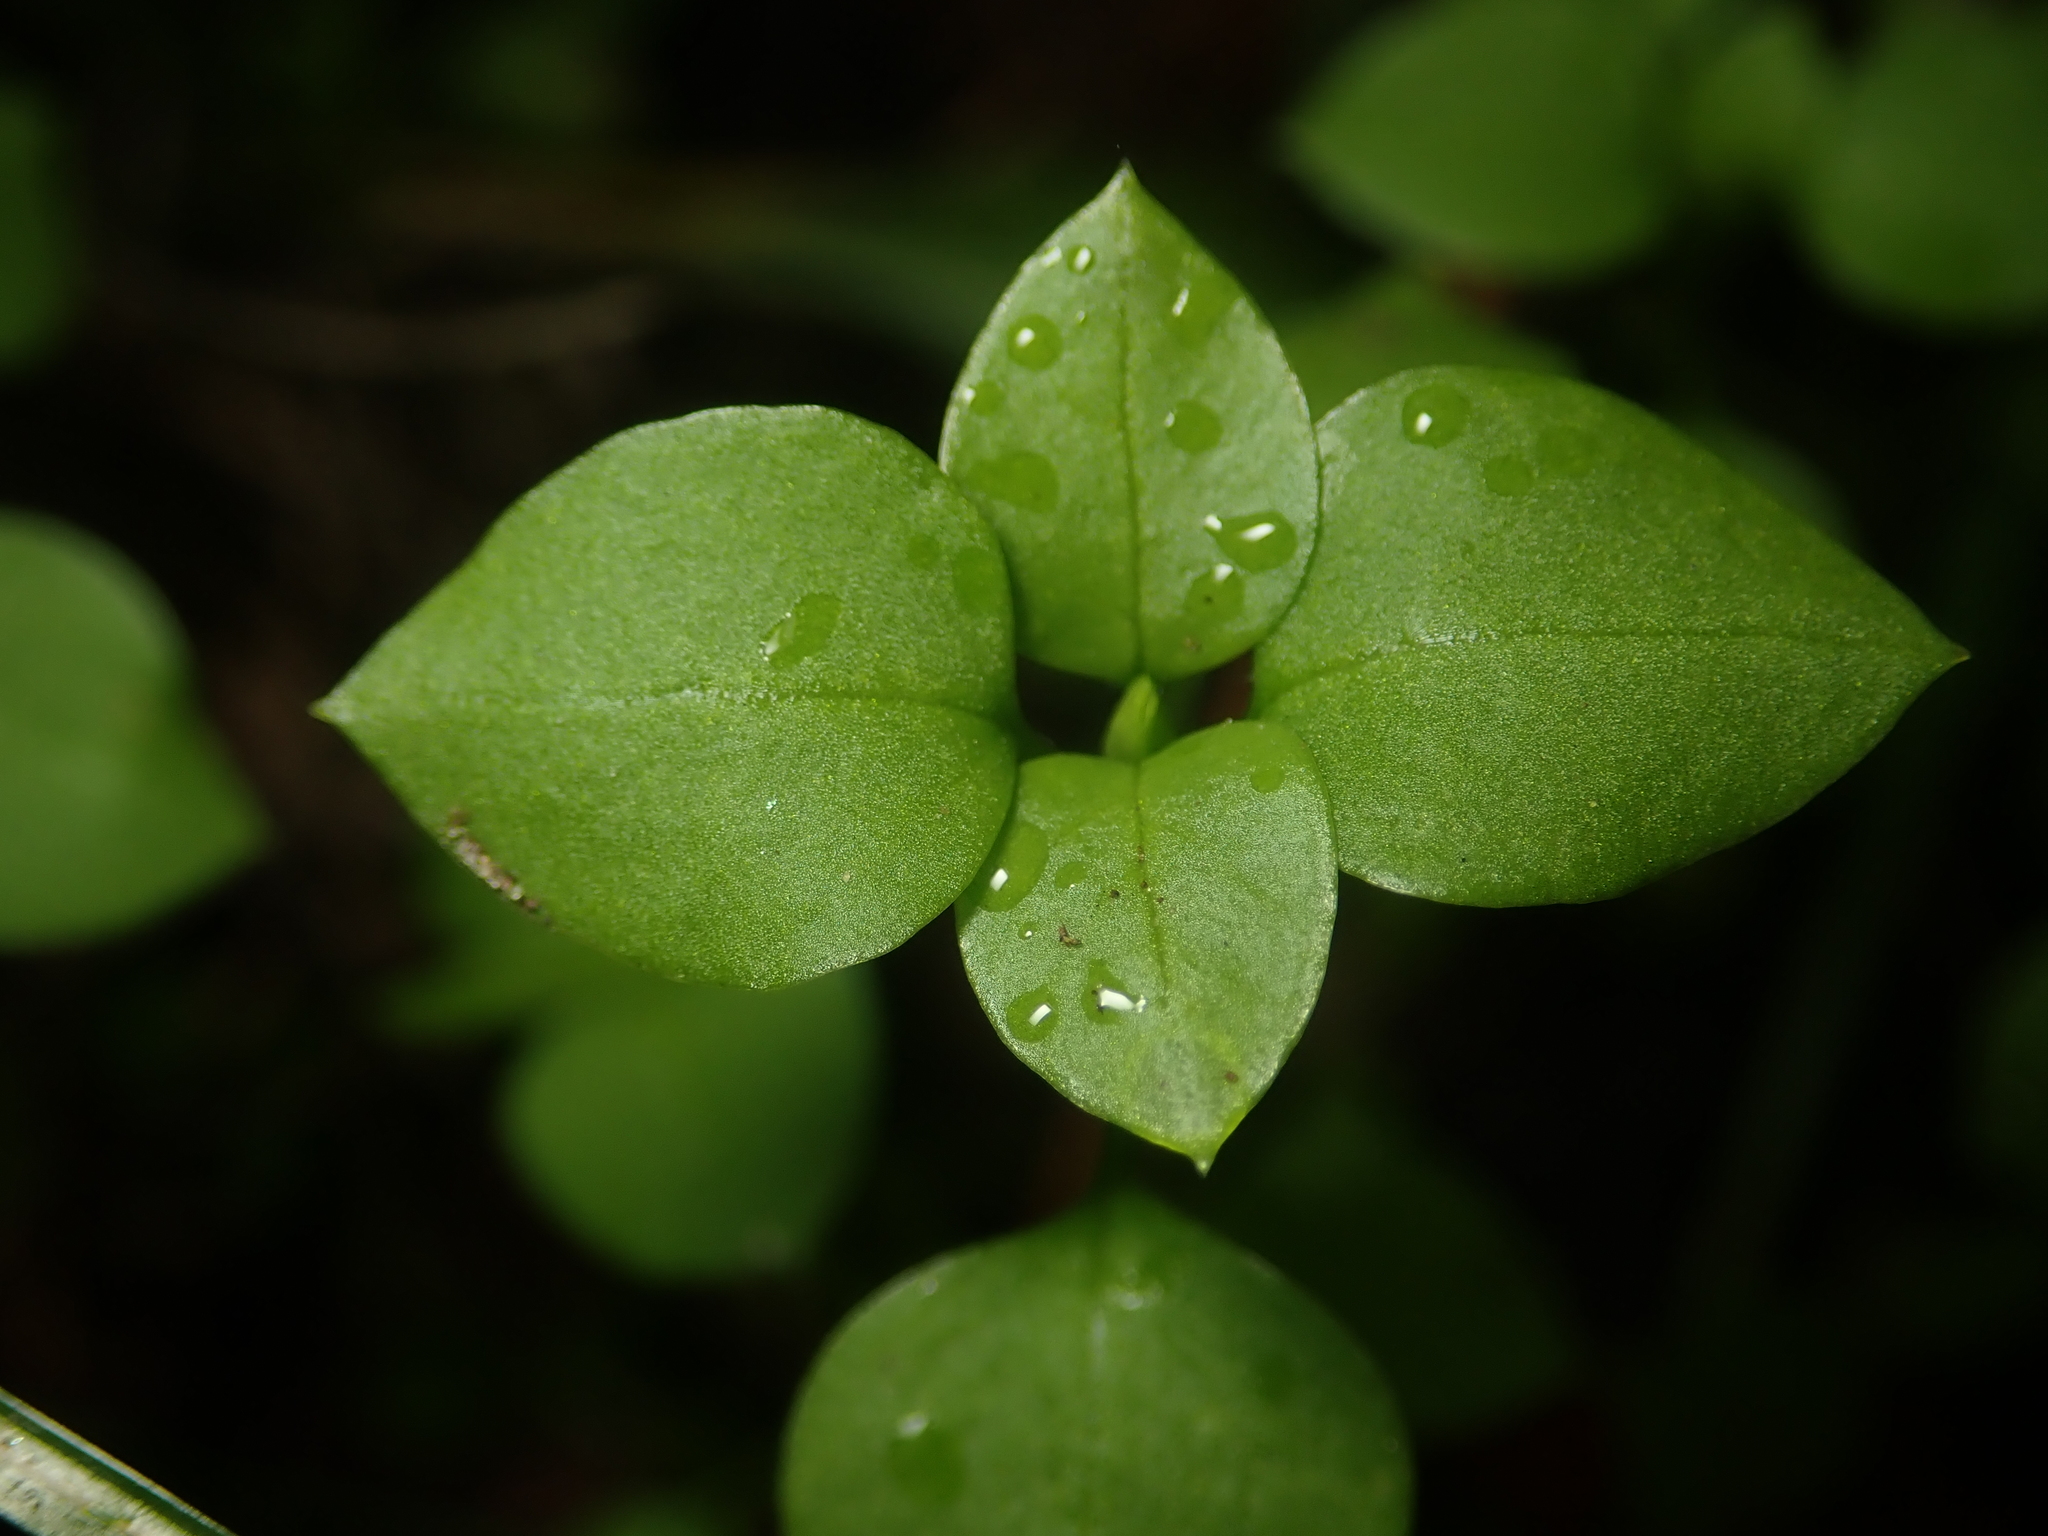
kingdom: Plantae
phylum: Tracheophyta
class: Magnoliopsida
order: Caryophyllales
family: Caryophyllaceae
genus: Stellaria
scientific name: Stellaria media
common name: Common chickweed
